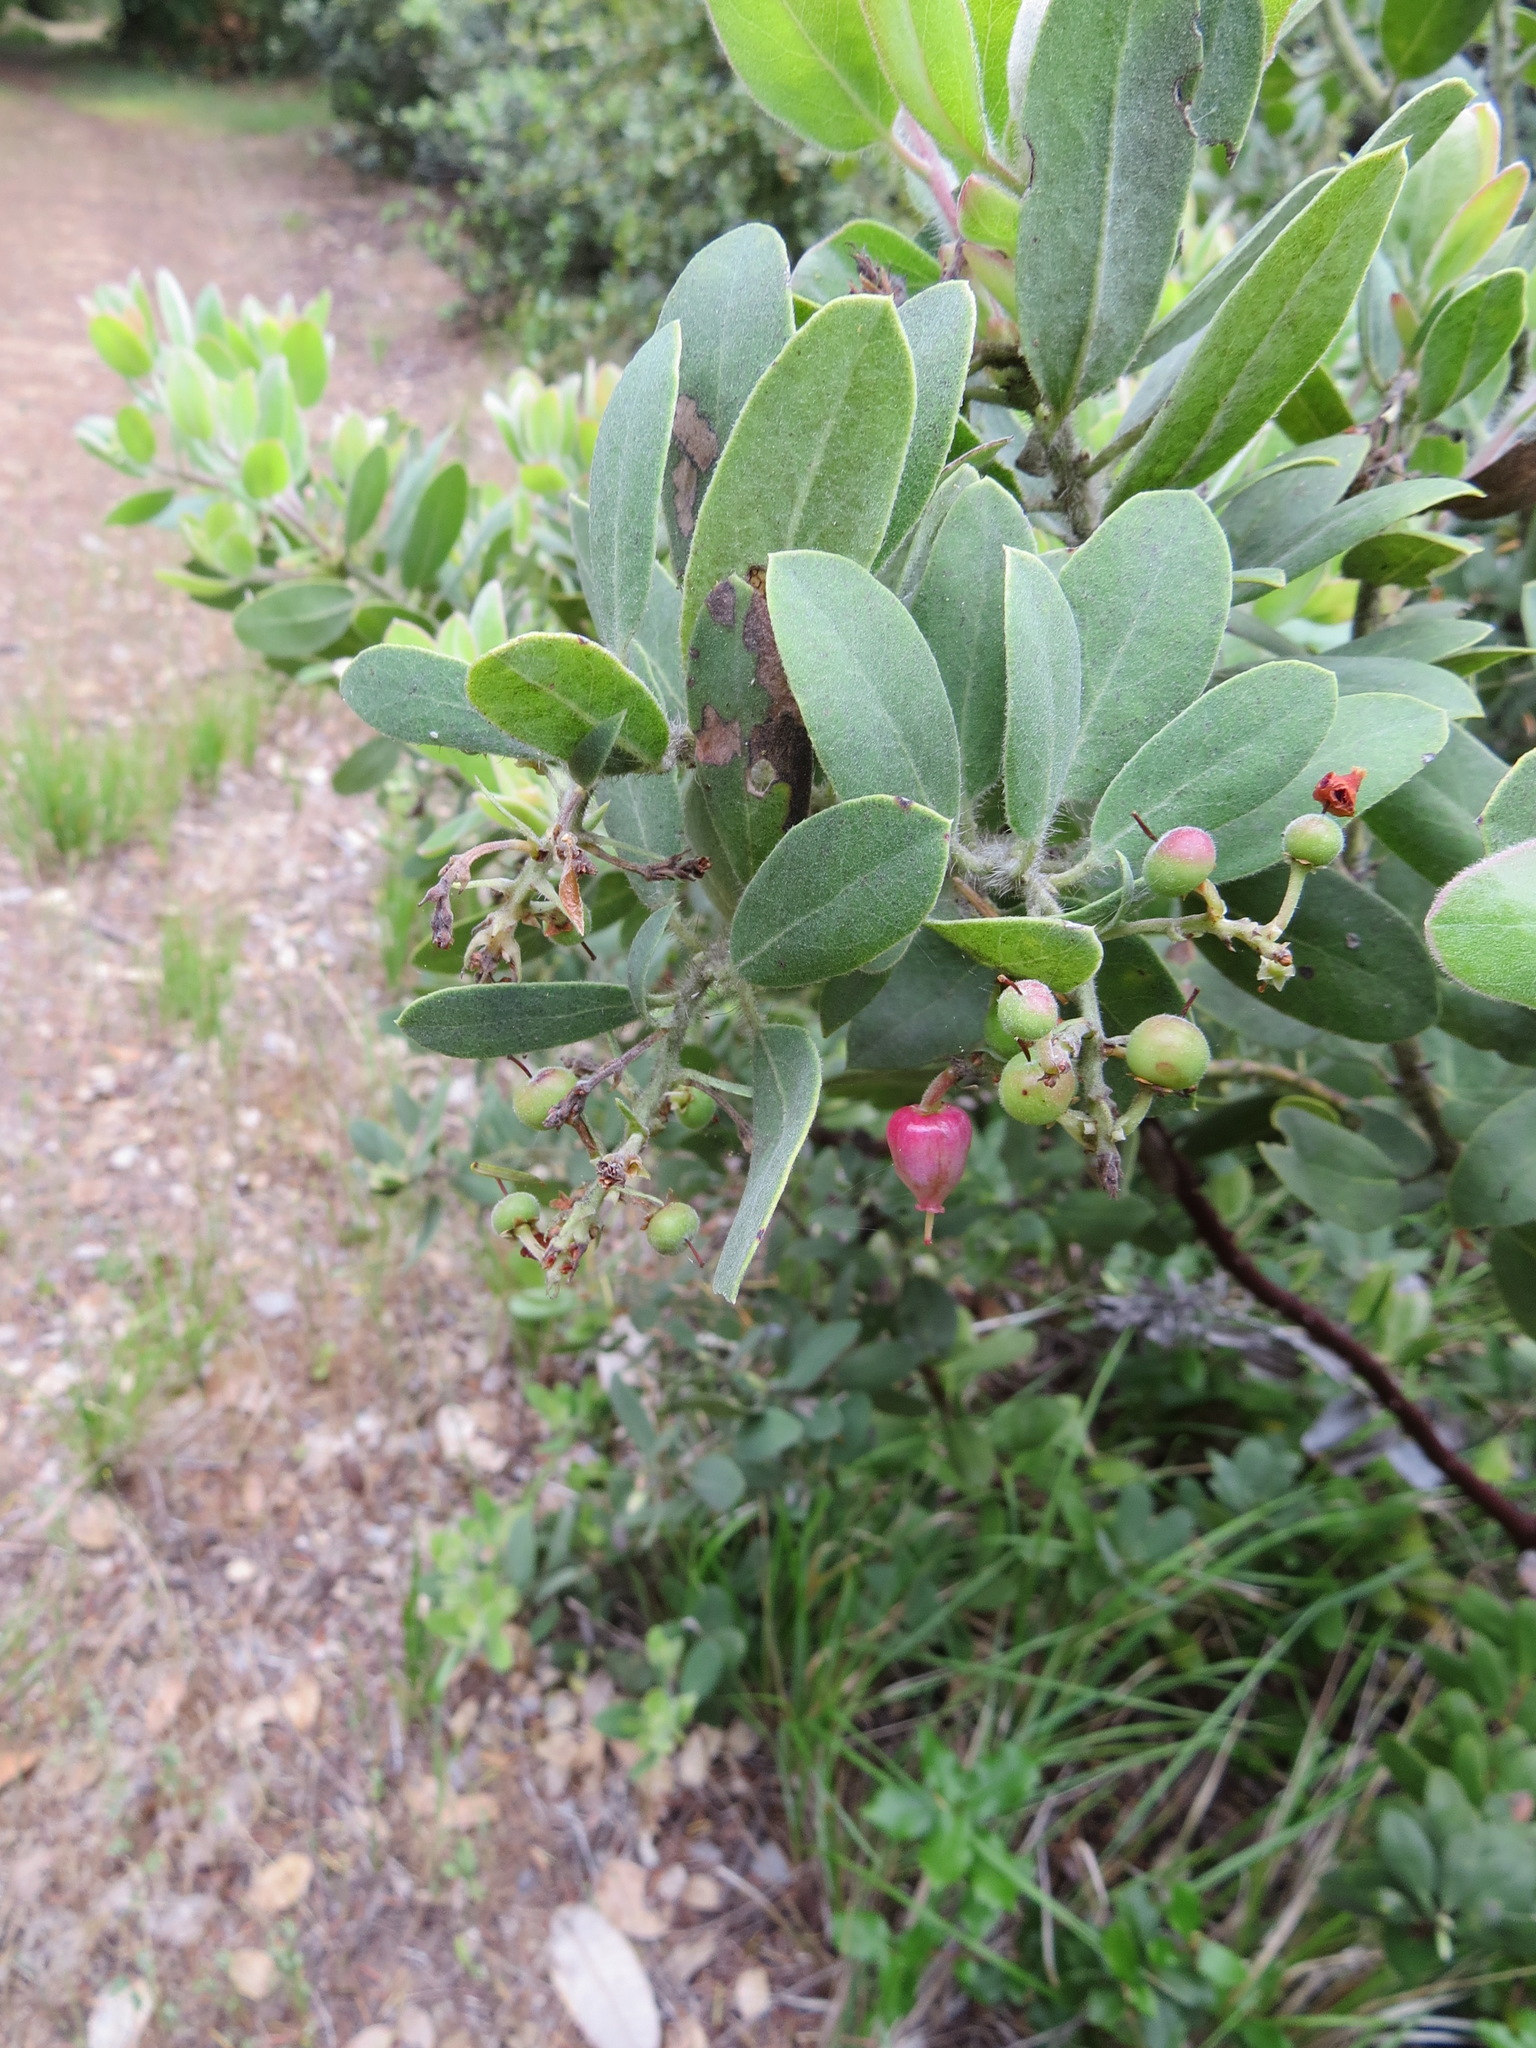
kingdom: Plantae
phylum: Tracheophyta
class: Magnoliopsida
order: Ericales
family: Ericaceae
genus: Arctostaphylos
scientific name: Arctostaphylos crustacea
